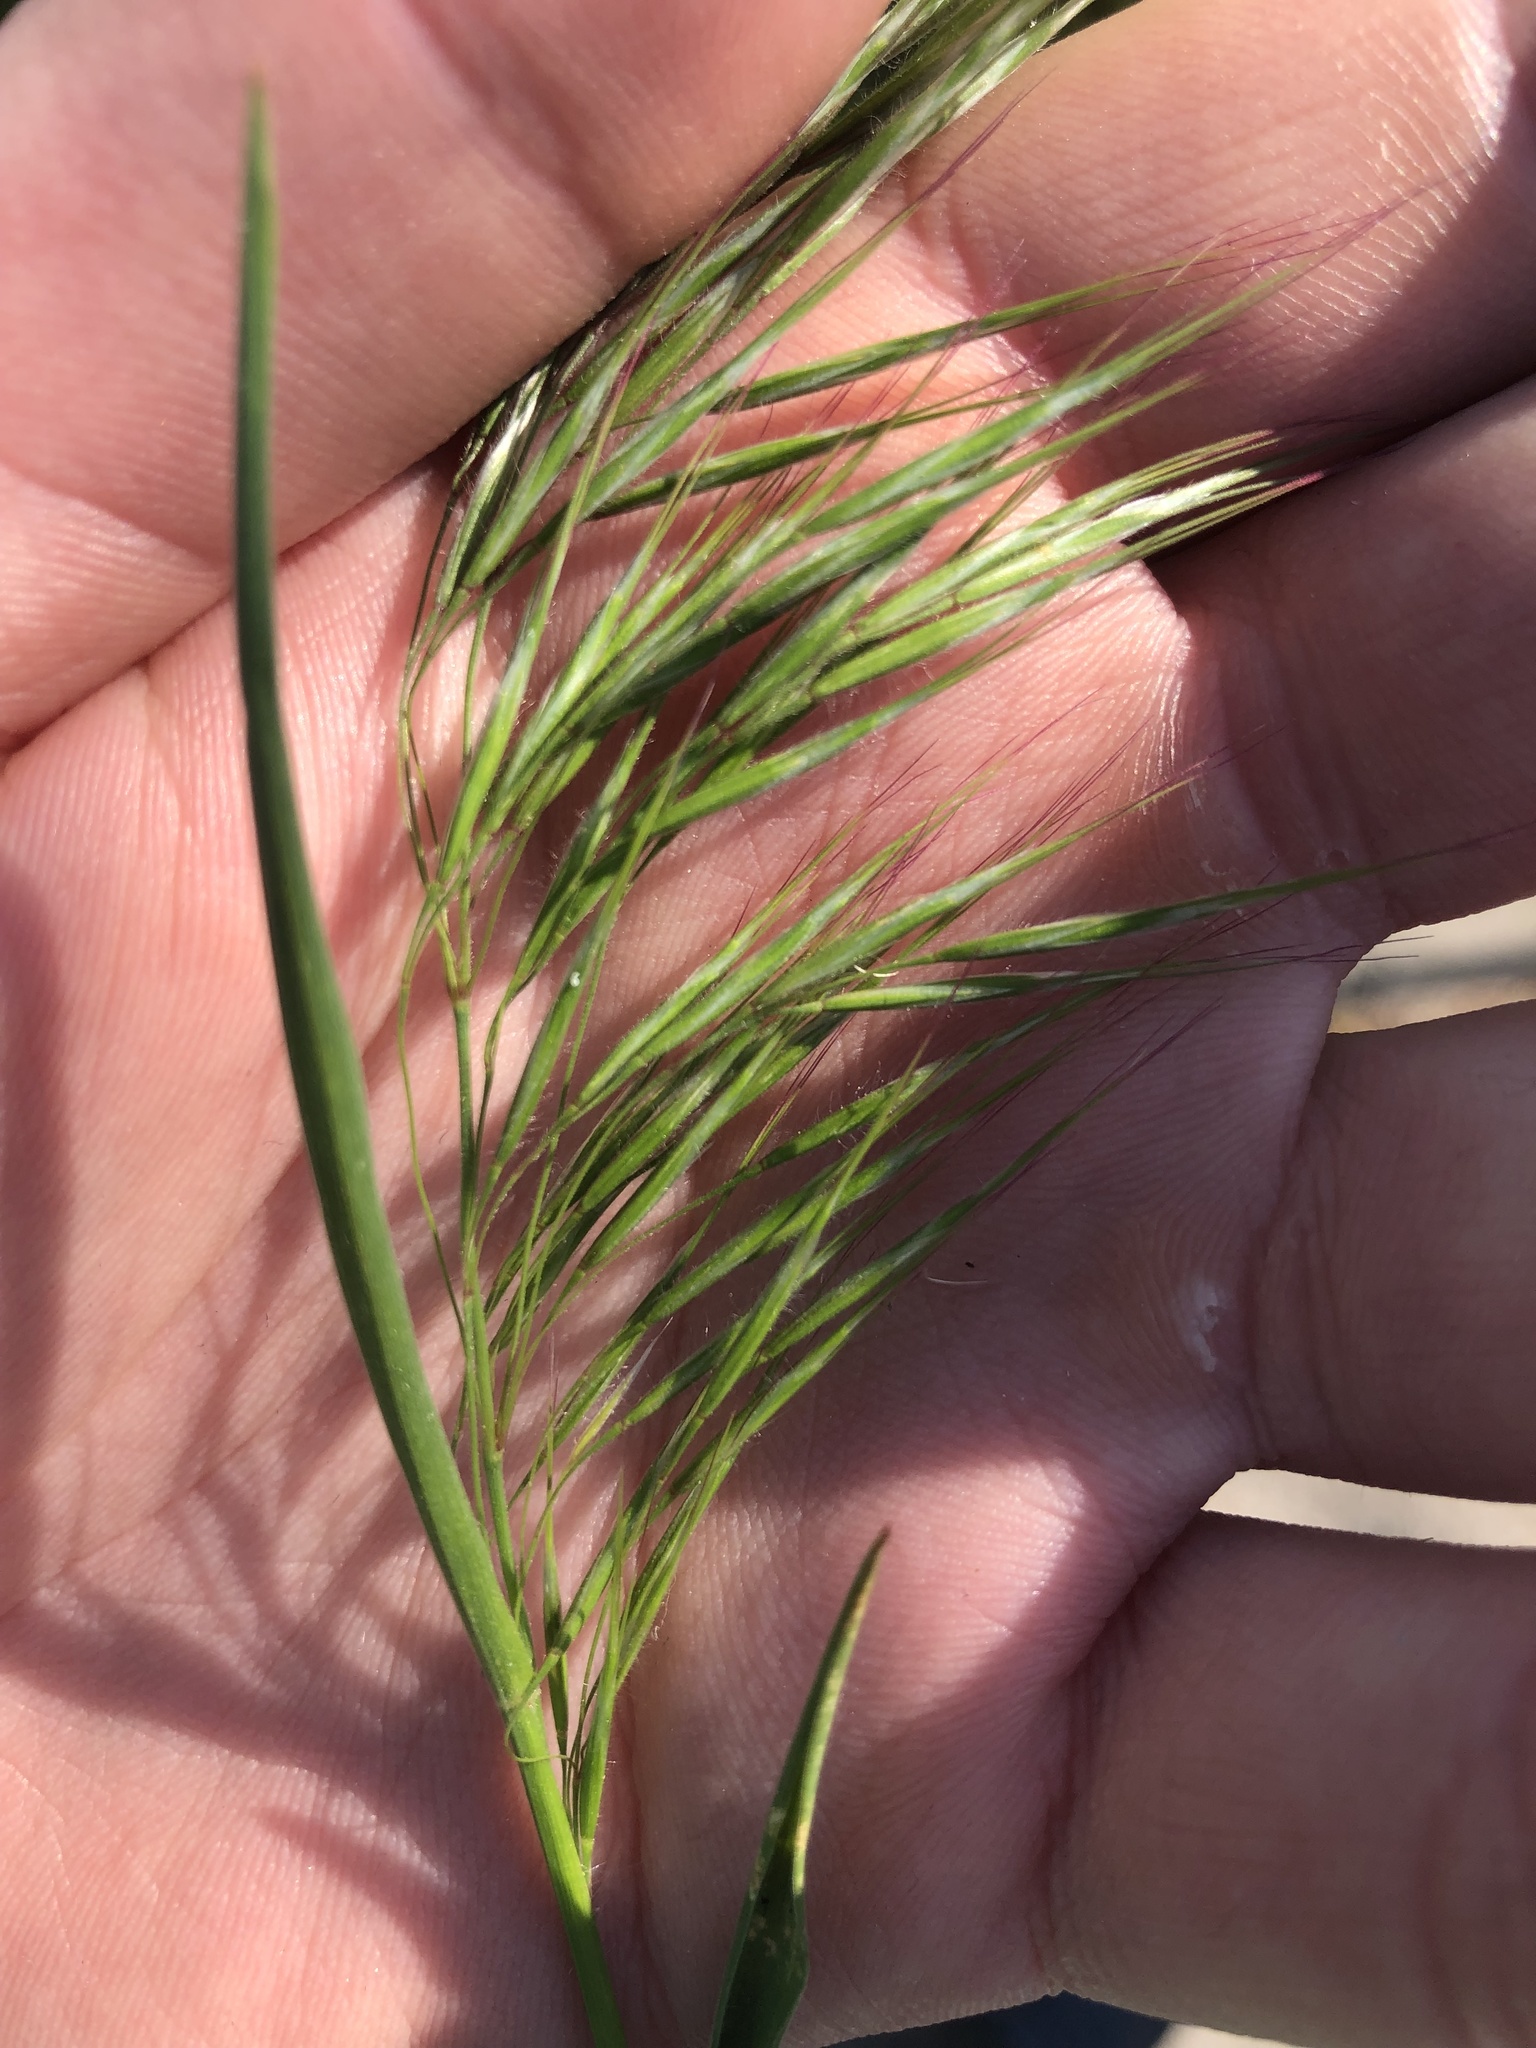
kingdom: Plantae
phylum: Tracheophyta
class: Liliopsida
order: Poales
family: Poaceae
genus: Bromus
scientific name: Bromus tectorum
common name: Cheatgrass
